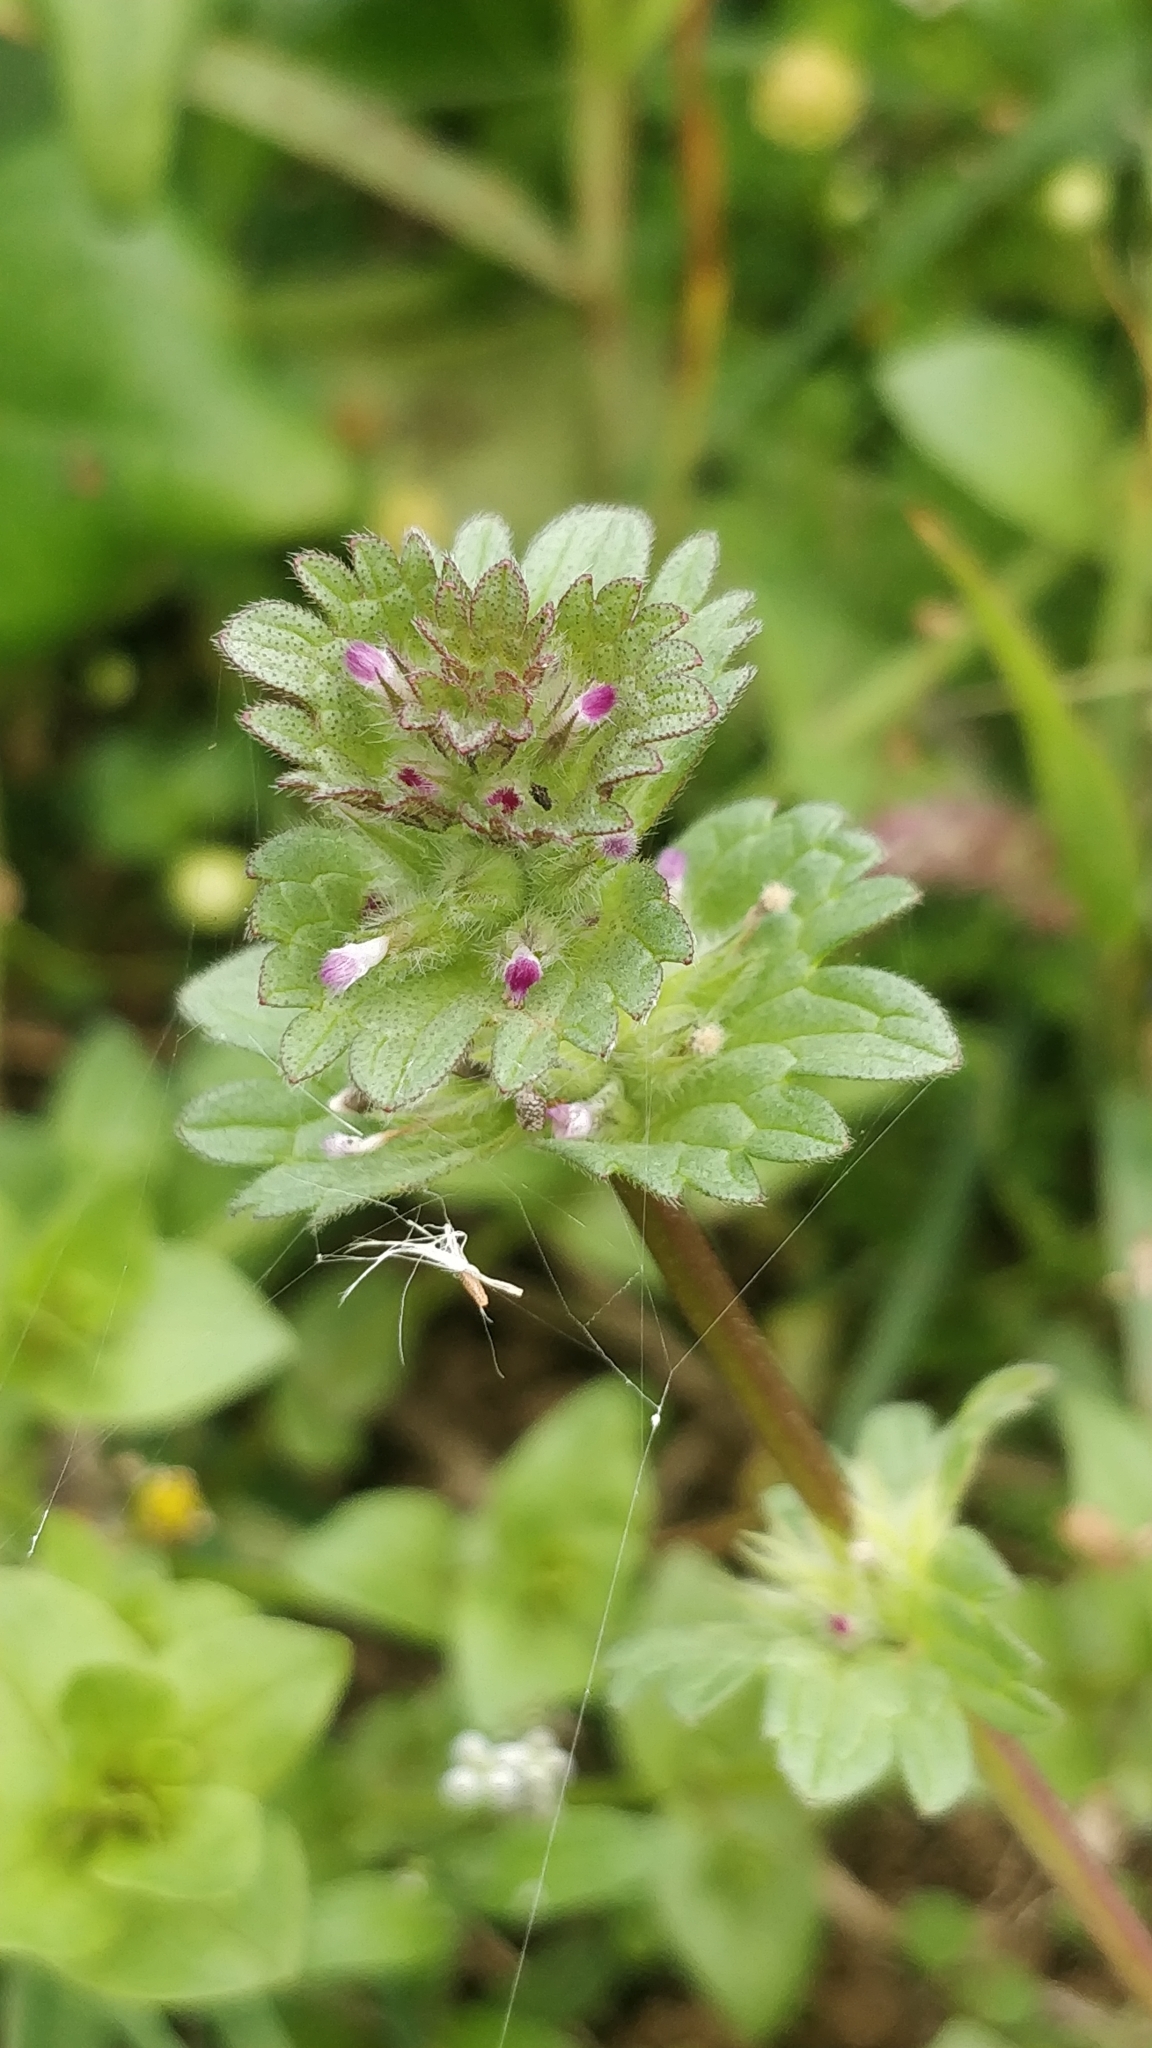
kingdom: Plantae
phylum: Tracheophyta
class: Magnoliopsida
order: Lamiales
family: Lamiaceae
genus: Lamium
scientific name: Lamium amplexicaule
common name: Henbit dead-nettle
